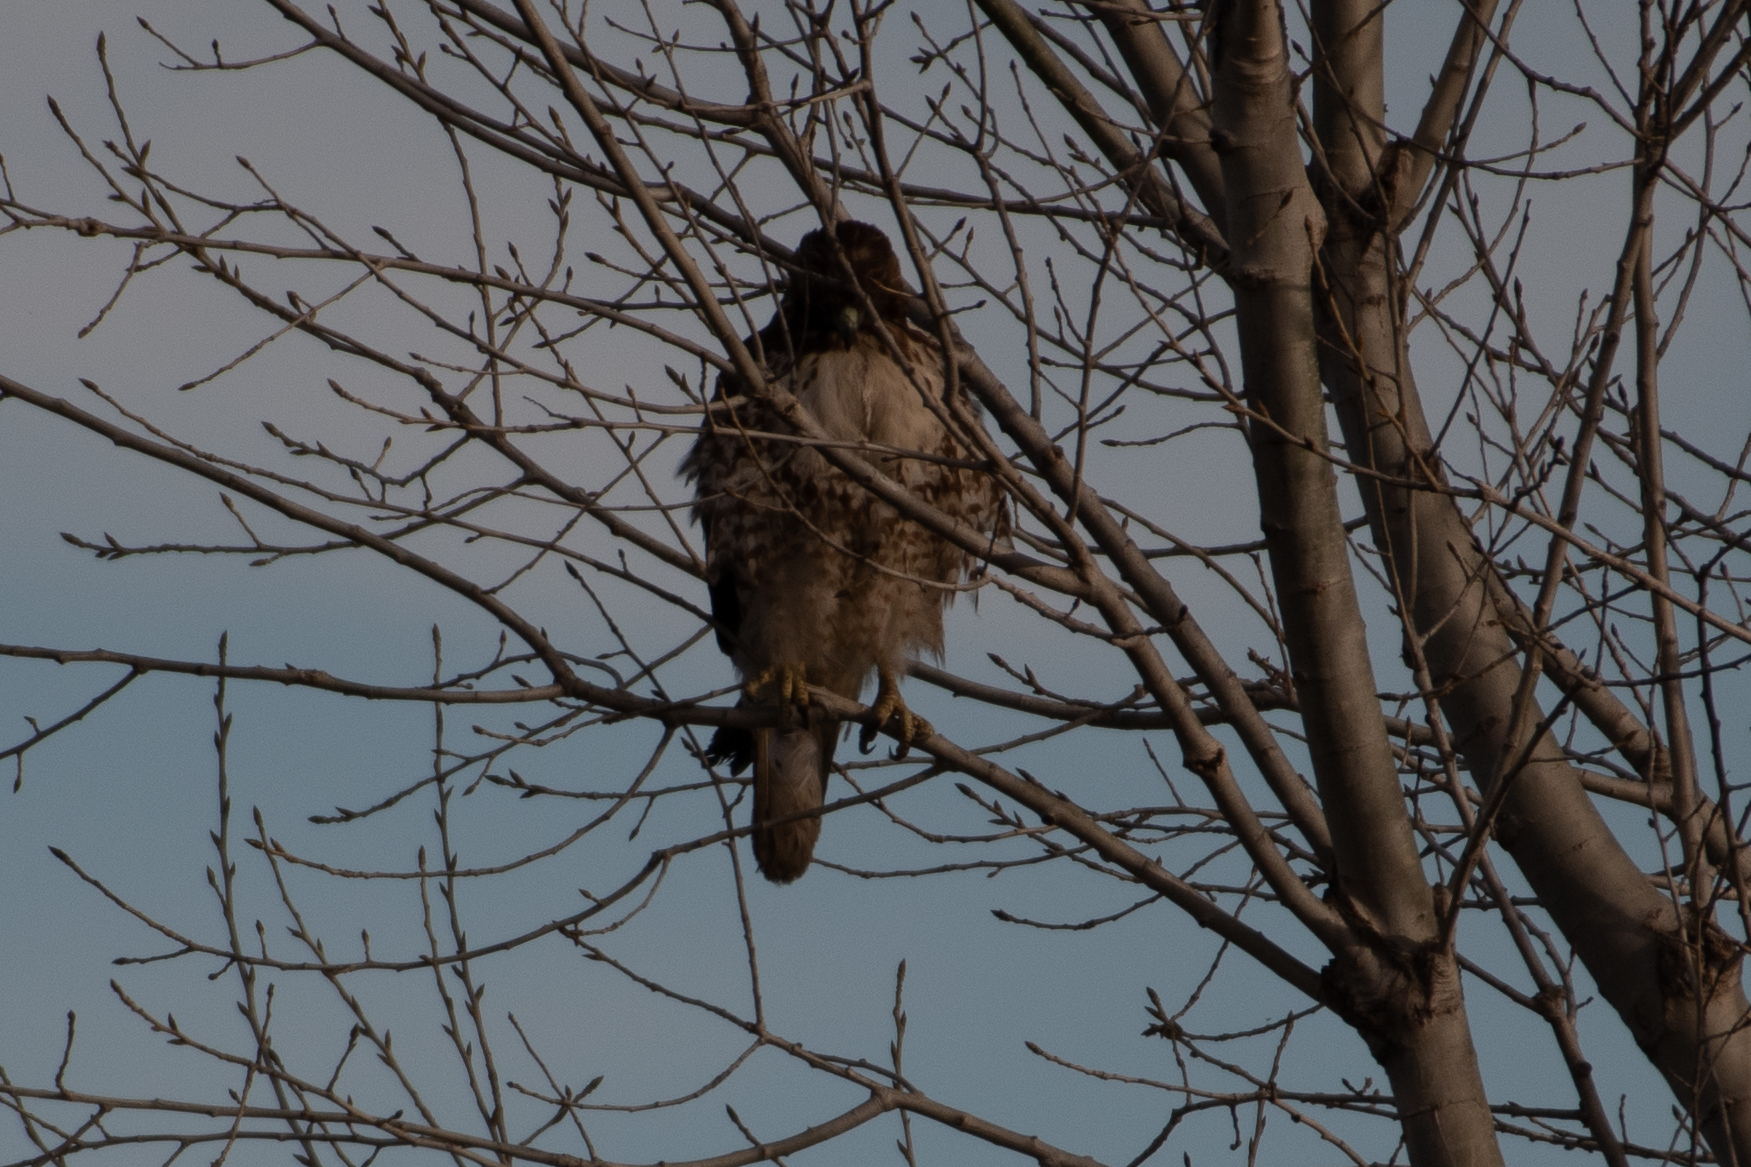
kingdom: Animalia
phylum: Chordata
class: Aves
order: Accipitriformes
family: Accipitridae
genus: Buteo
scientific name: Buteo jamaicensis
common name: Red-tailed hawk
